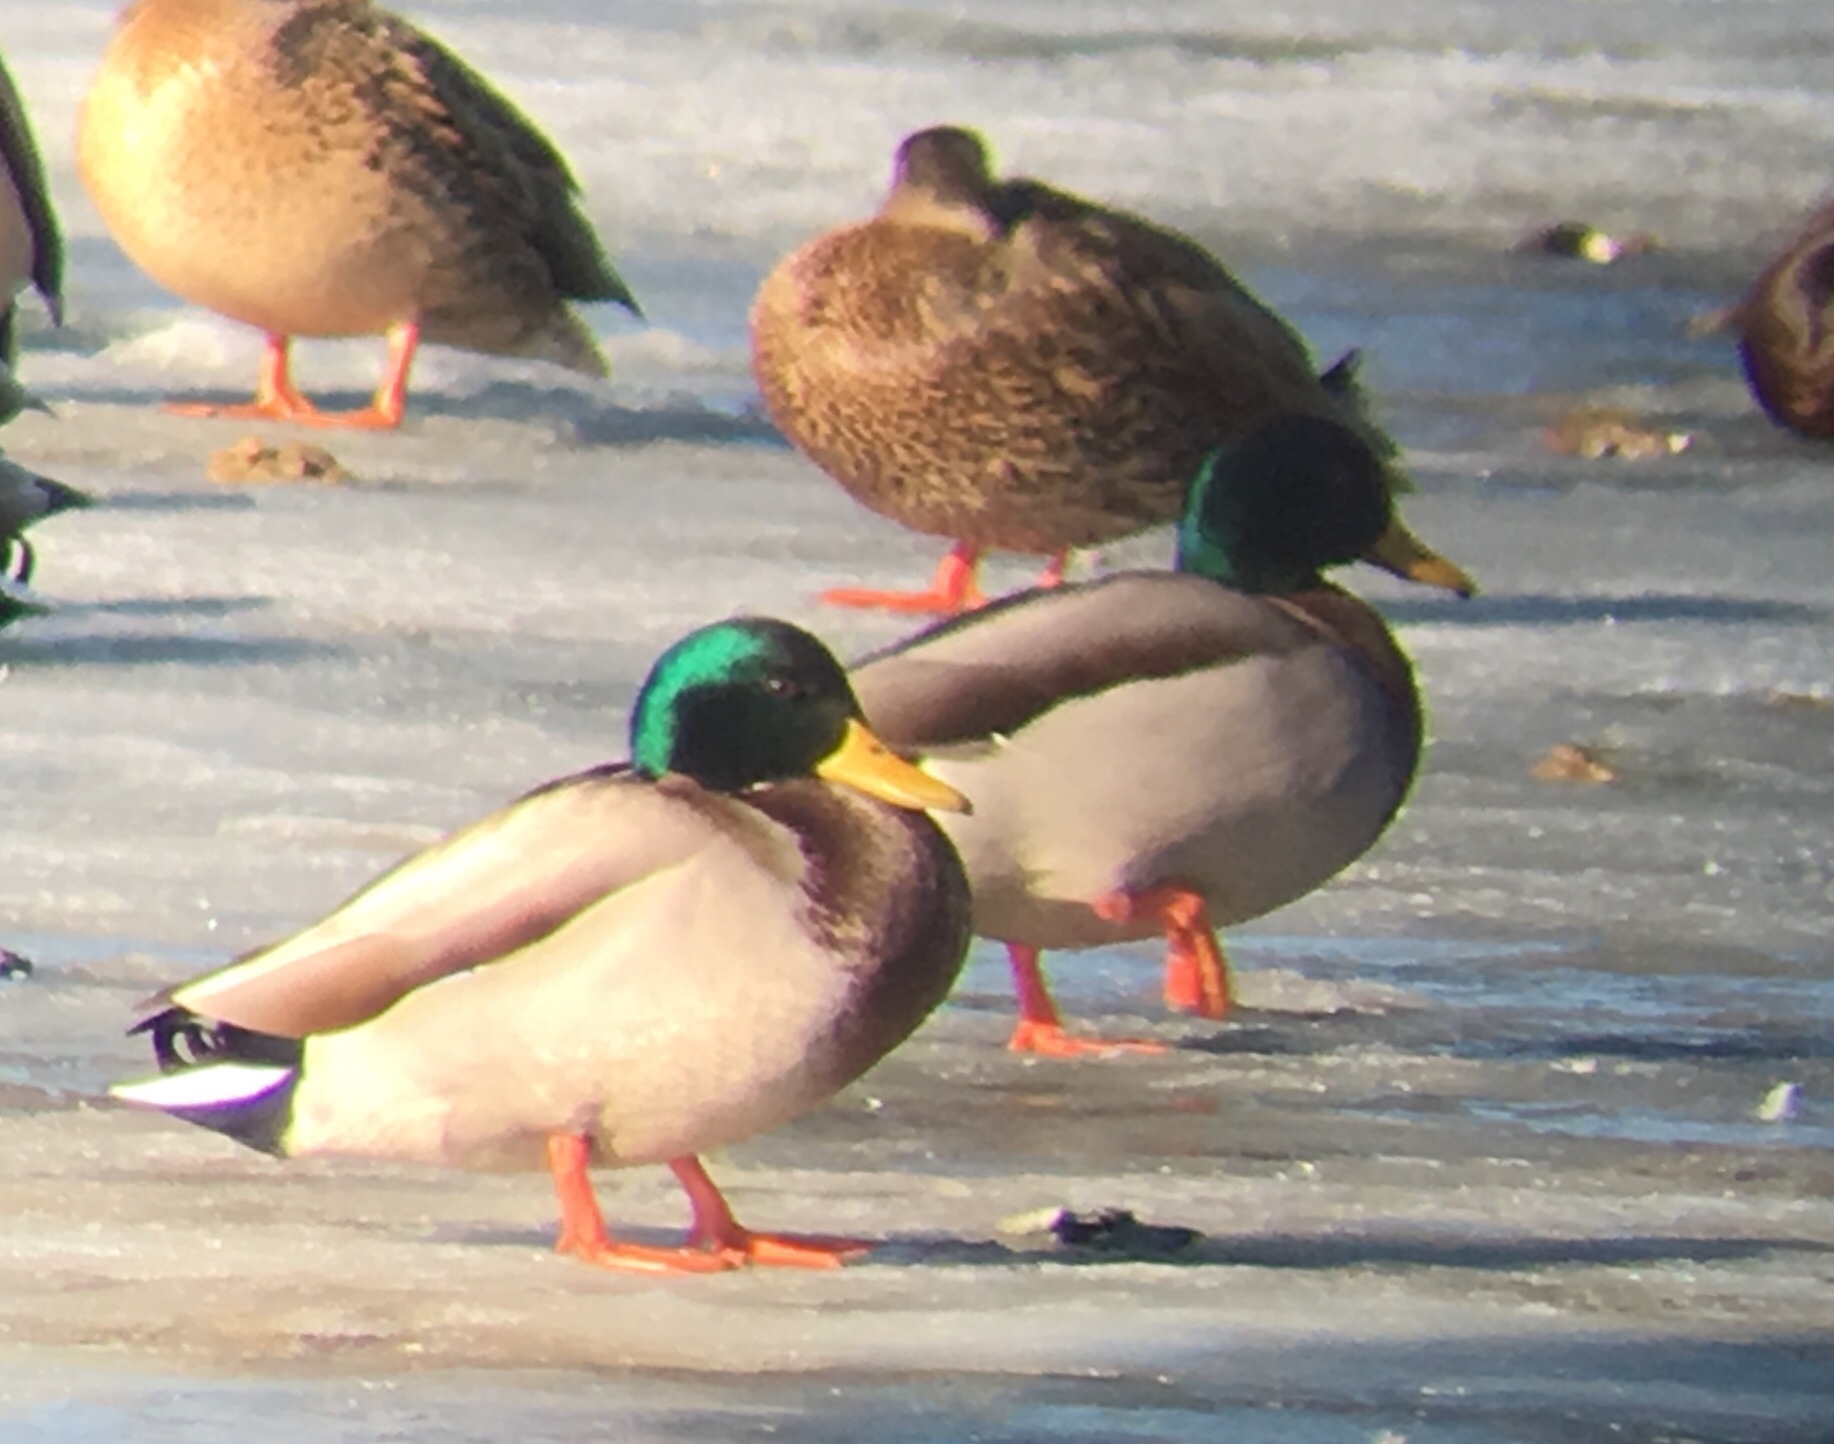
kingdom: Animalia
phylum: Chordata
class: Aves
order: Anseriformes
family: Anatidae
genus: Anas
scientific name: Anas platyrhynchos
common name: Mallard
